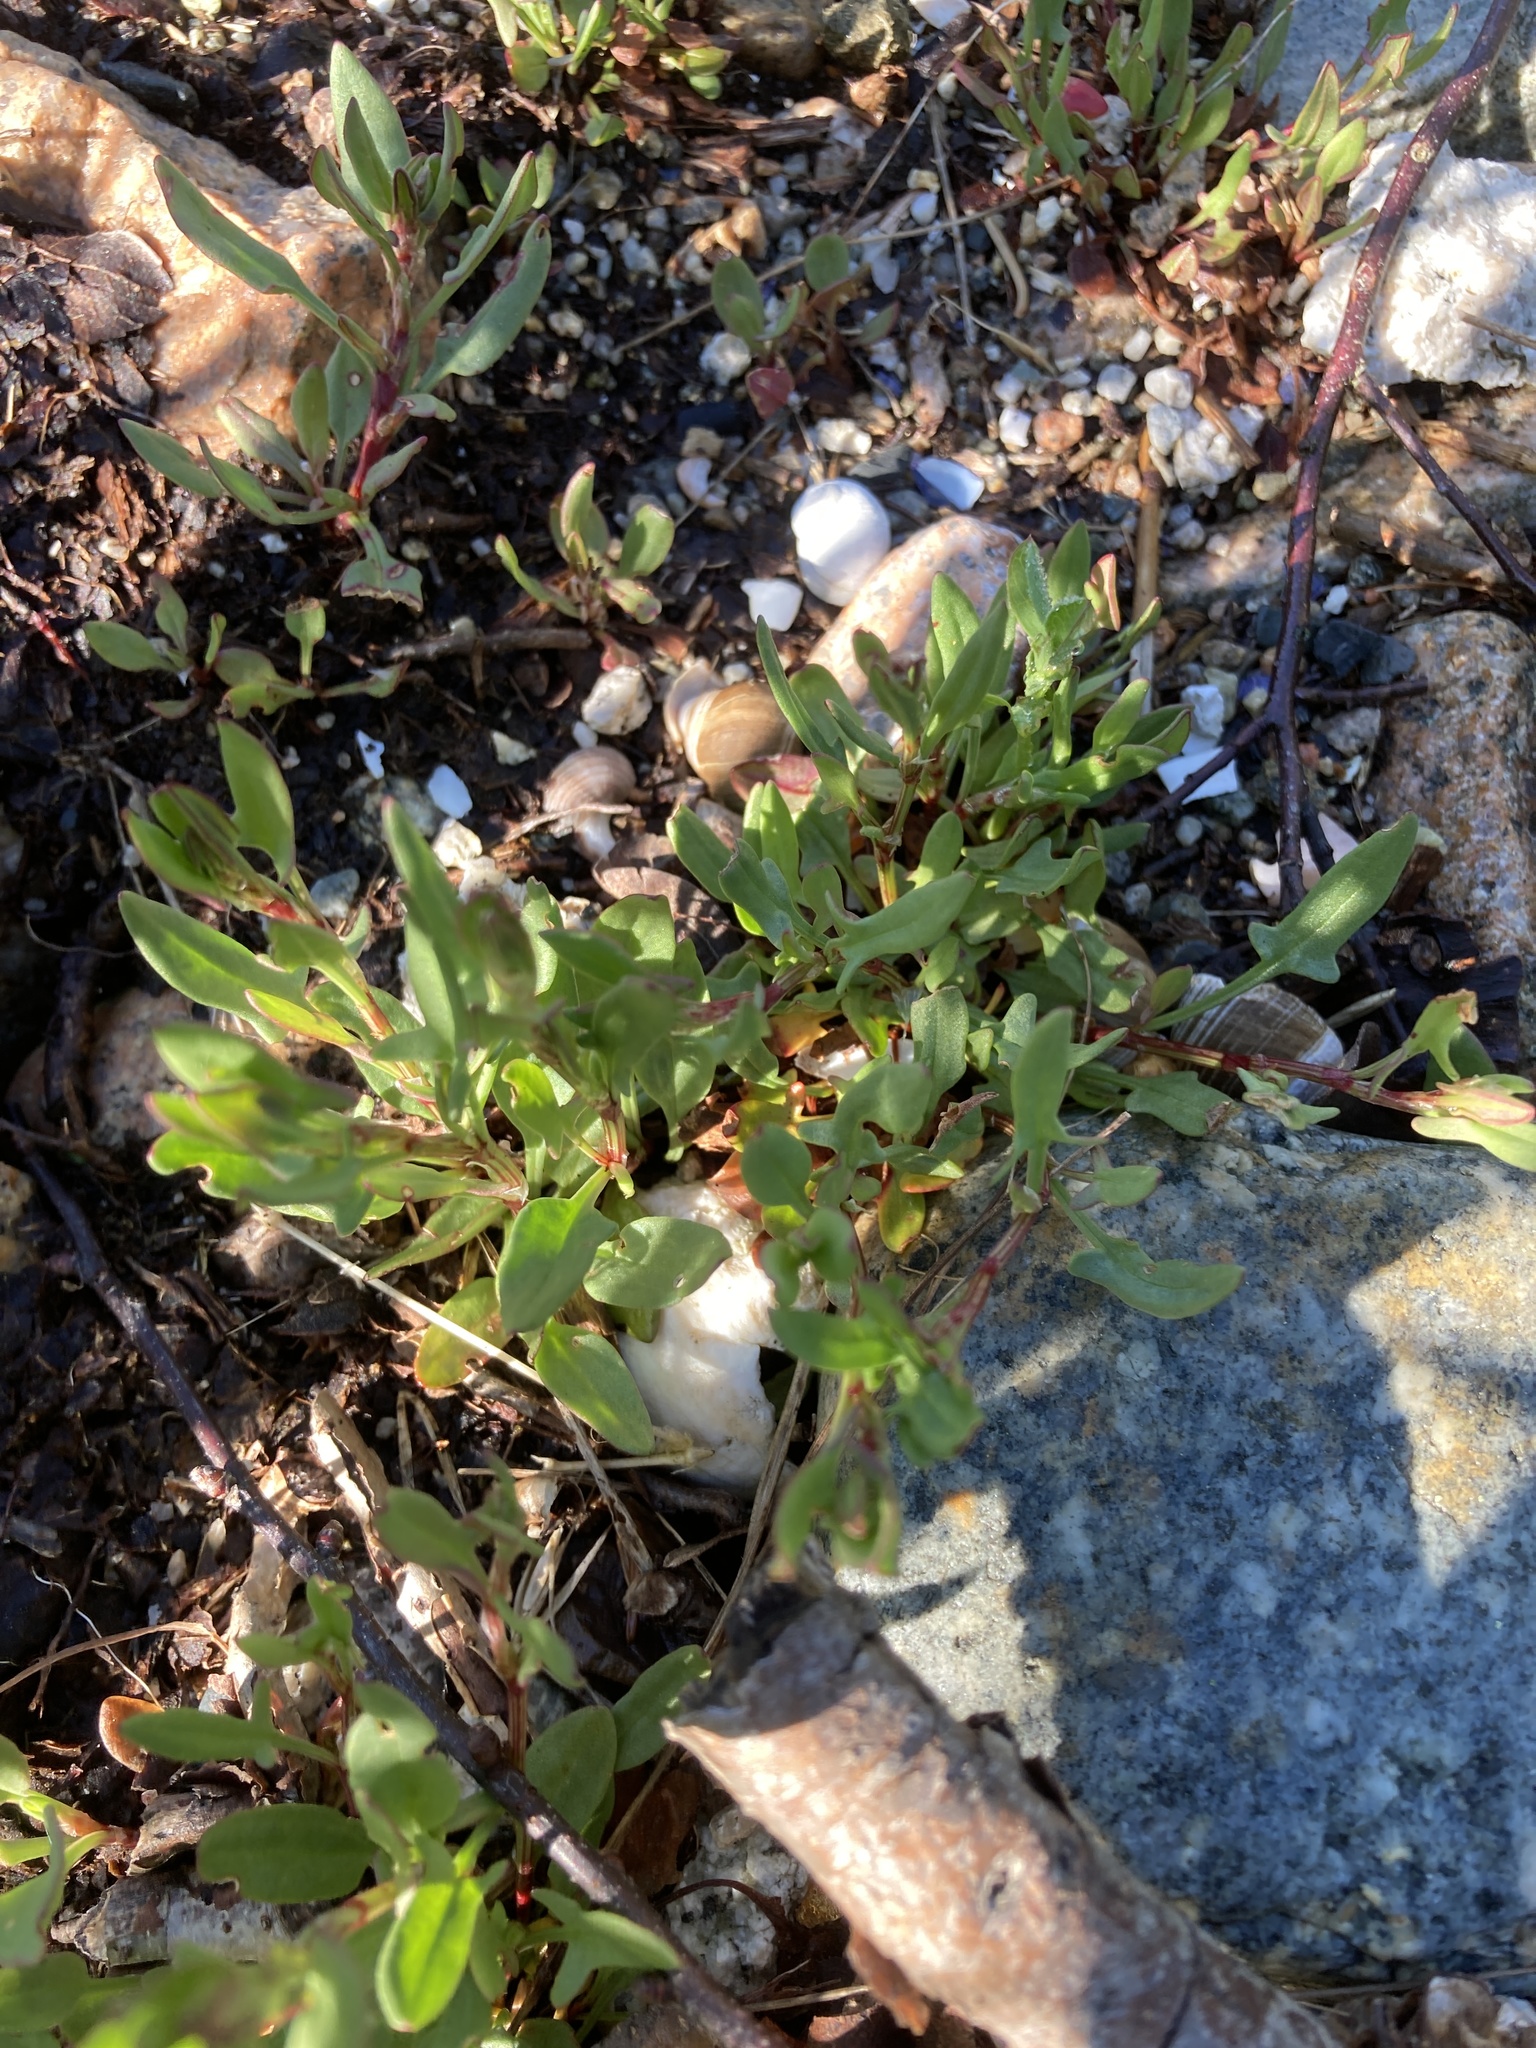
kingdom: Plantae
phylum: Tracheophyta
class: Magnoliopsida
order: Caryophyllales
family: Polygonaceae
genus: Rumex
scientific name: Rumex acetosella
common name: Common sheep sorrel
